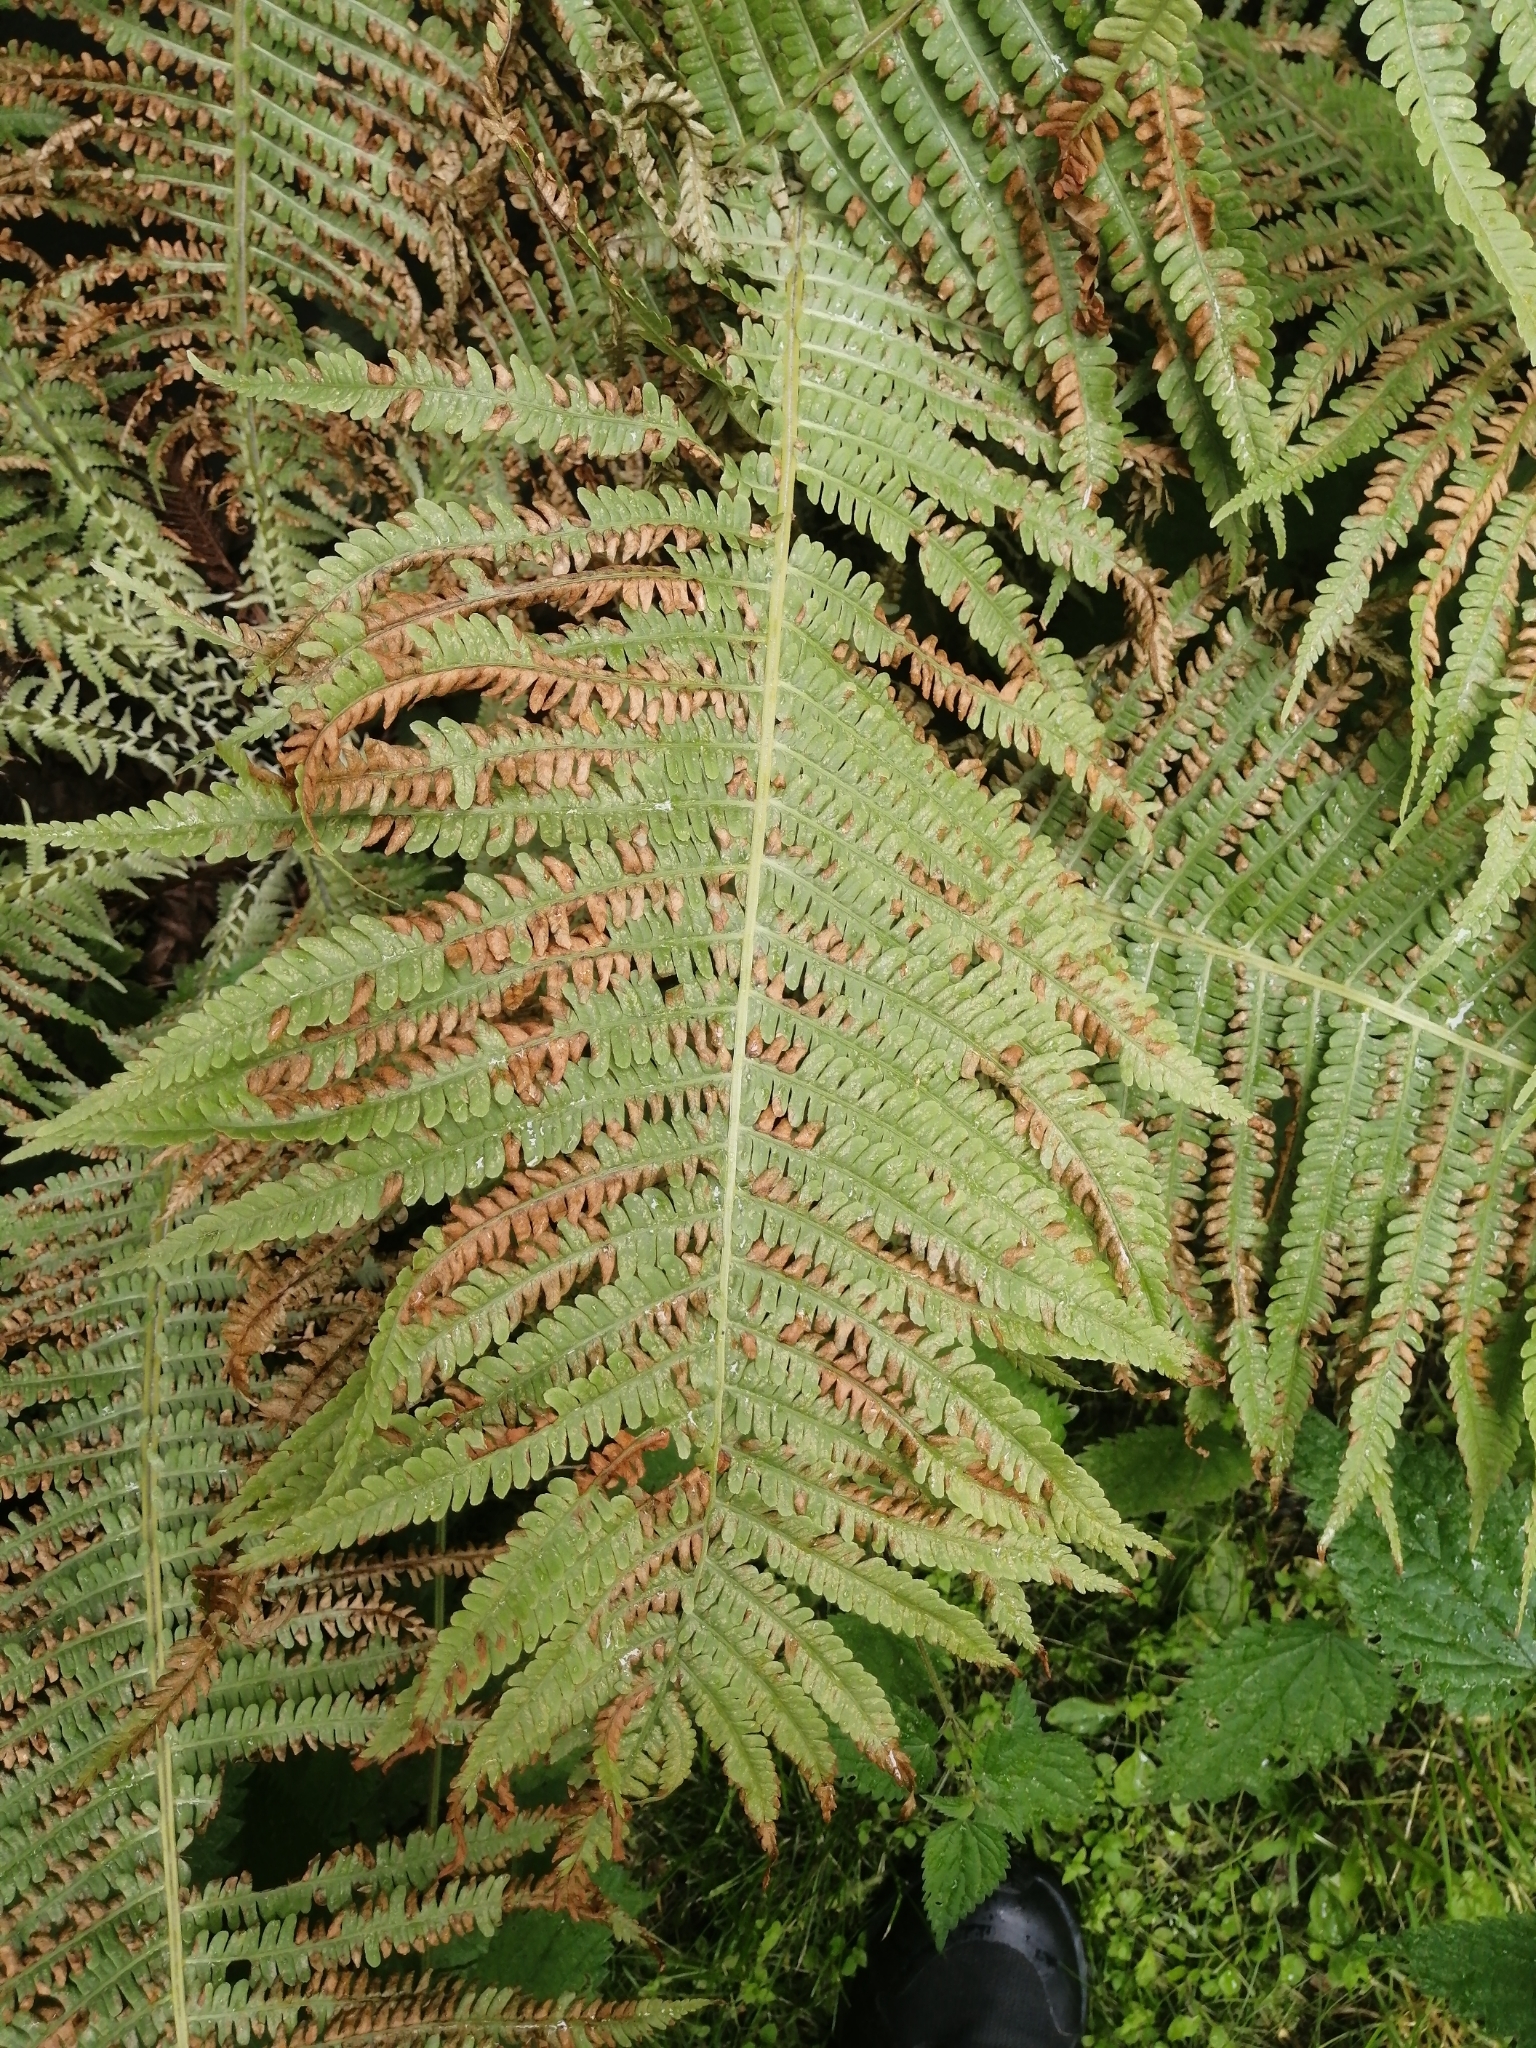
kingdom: Plantae
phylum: Tracheophyta
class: Polypodiopsida
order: Polypodiales
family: Onocleaceae
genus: Matteuccia
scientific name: Matteuccia struthiopteris
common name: Ostrich fern
